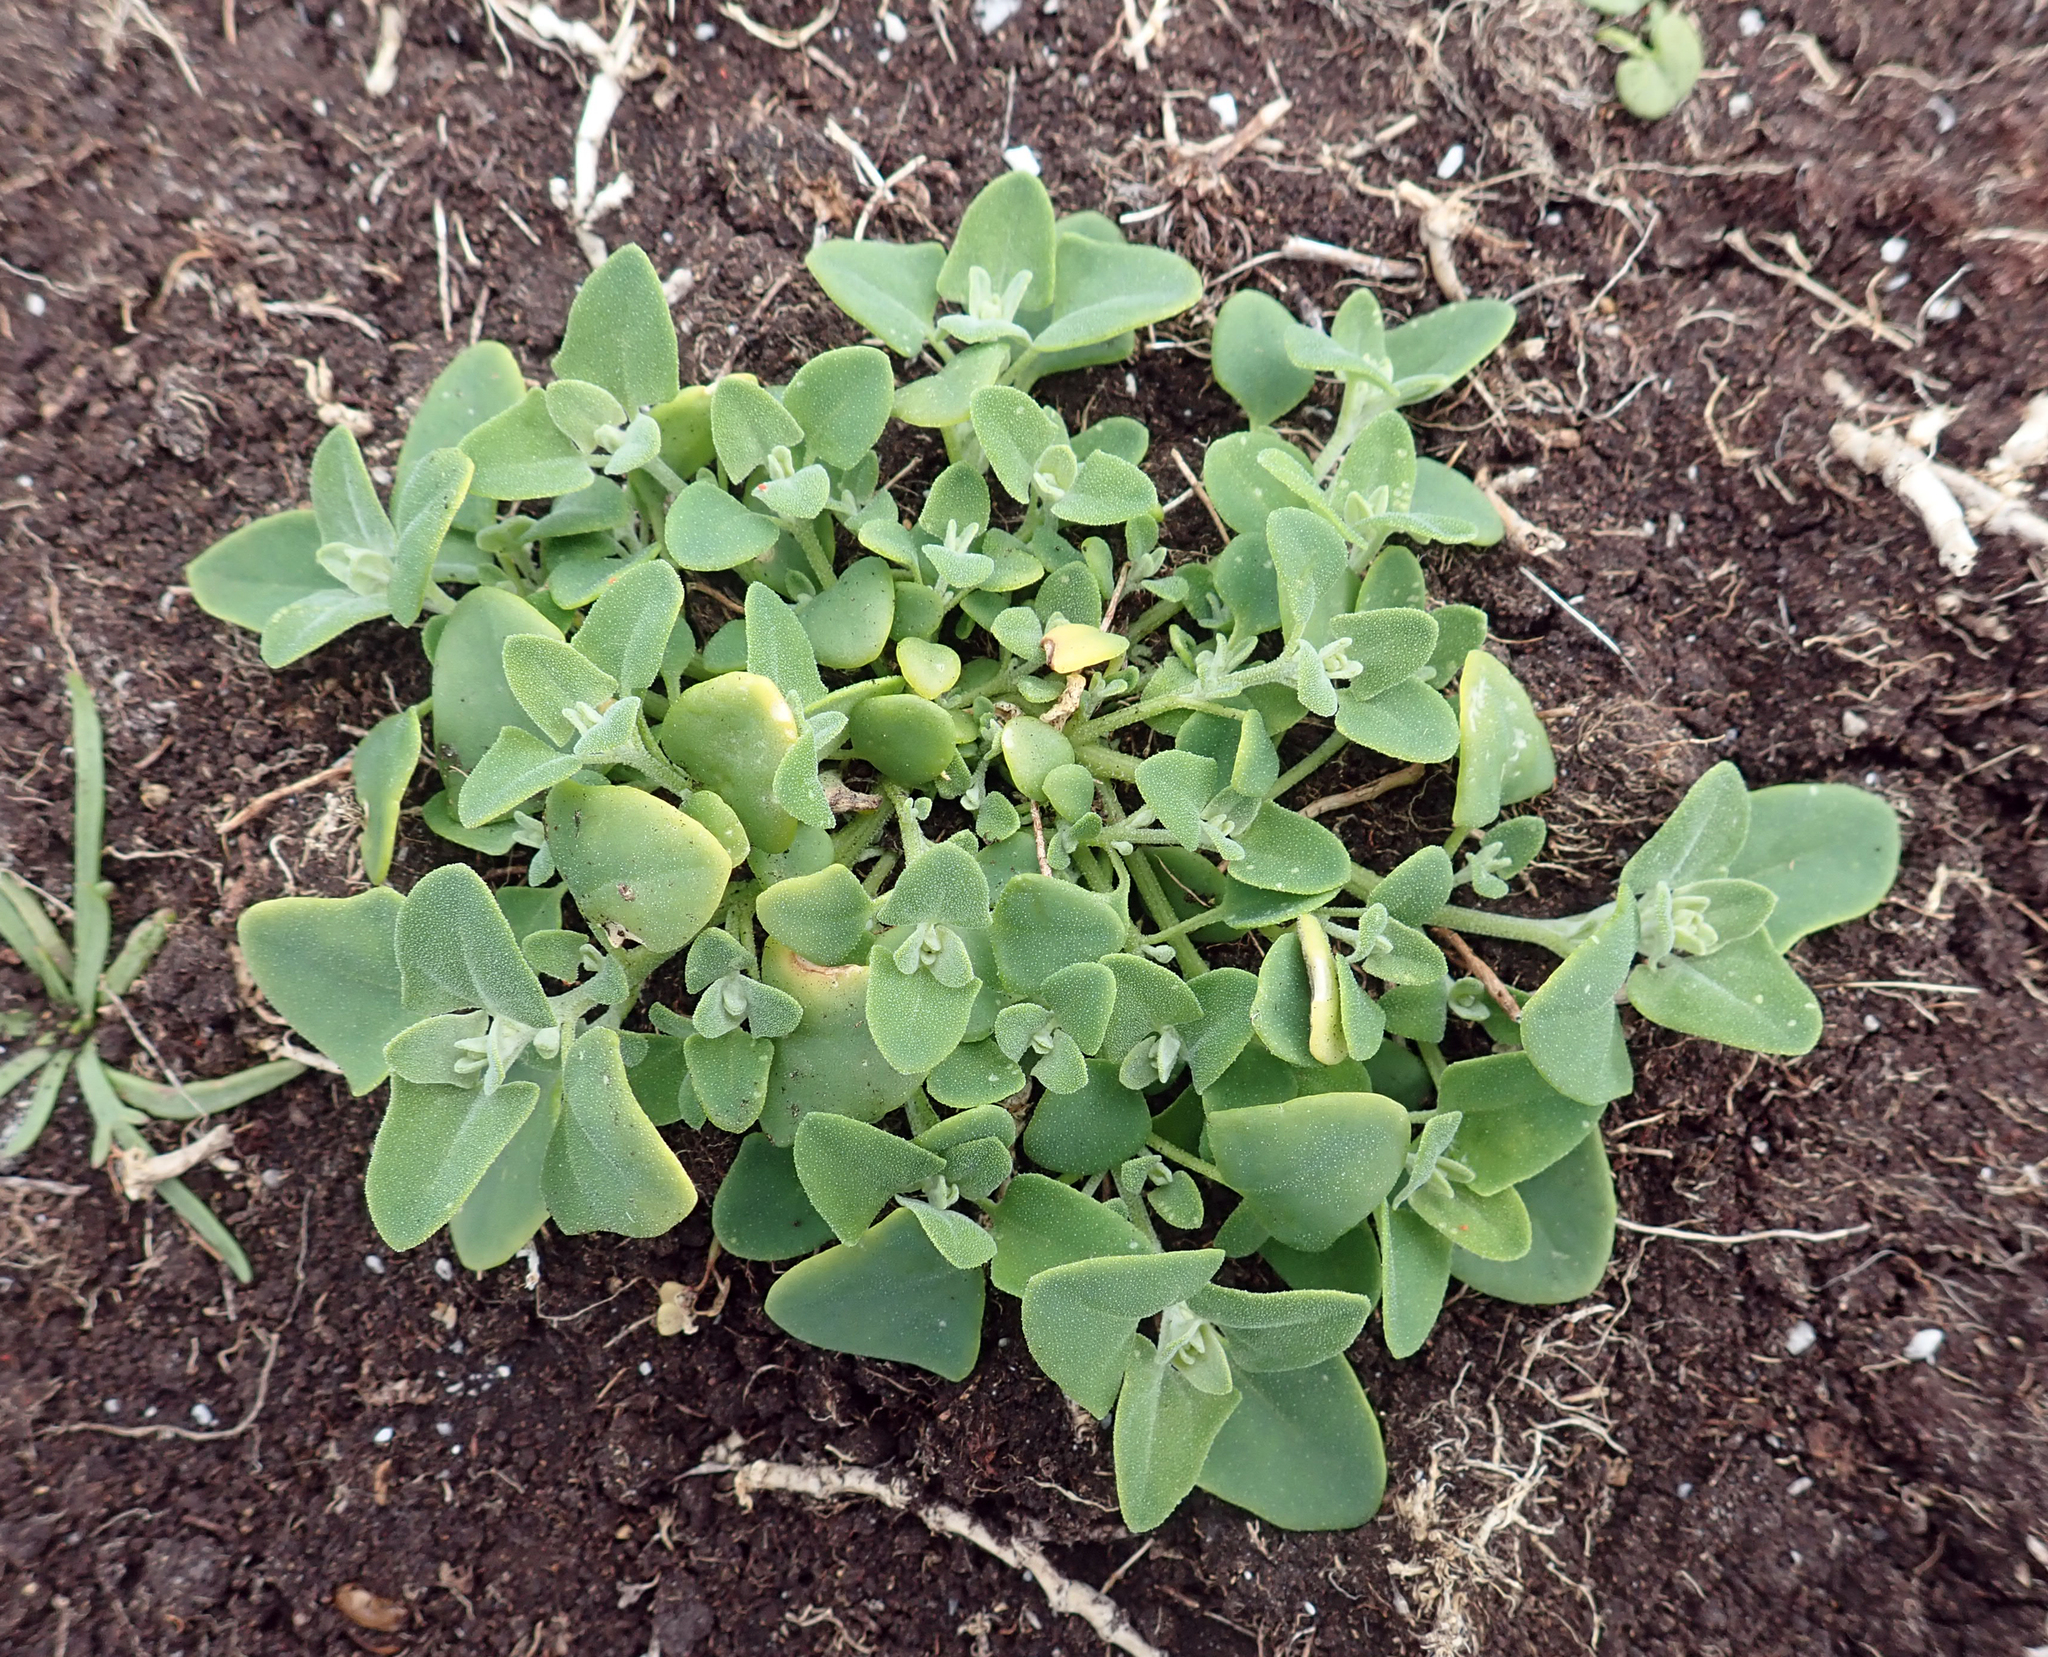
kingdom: Plantae
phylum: Tracheophyta
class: Magnoliopsida
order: Caryophyllales
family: Amaranthaceae
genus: Chenopodium
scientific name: Chenopodium trigonon
